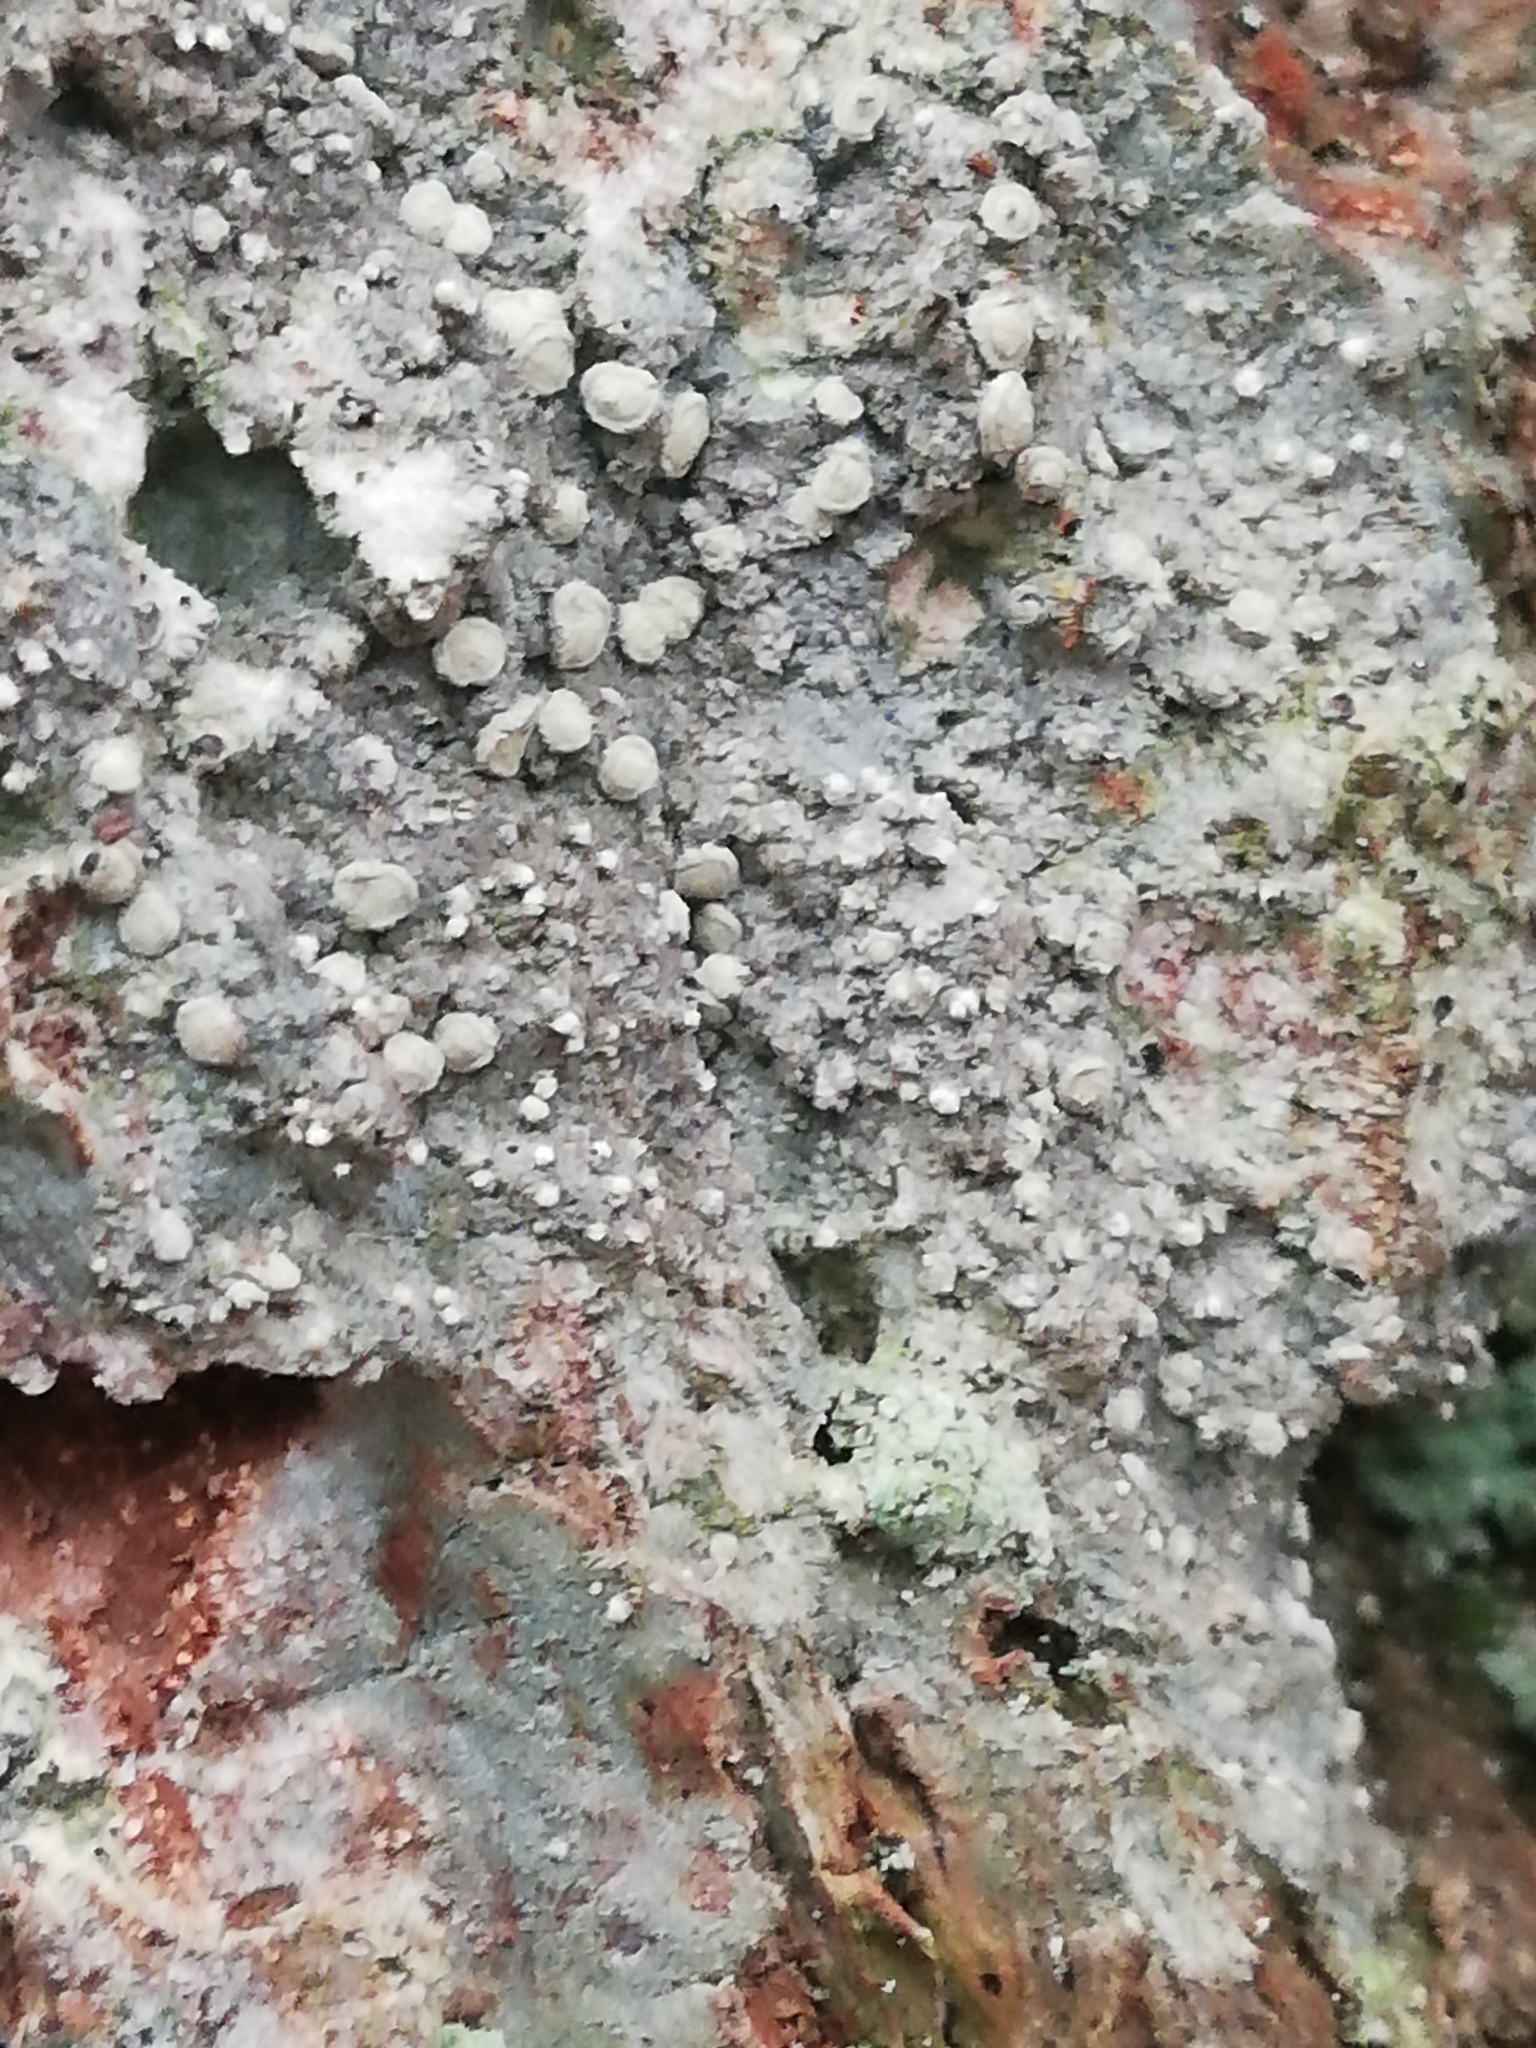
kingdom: Fungi
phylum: Ascomycota
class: Arthoniomycetes
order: Arthoniales
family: Roccellaceae
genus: Lecanactis
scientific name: Lecanactis abietina
